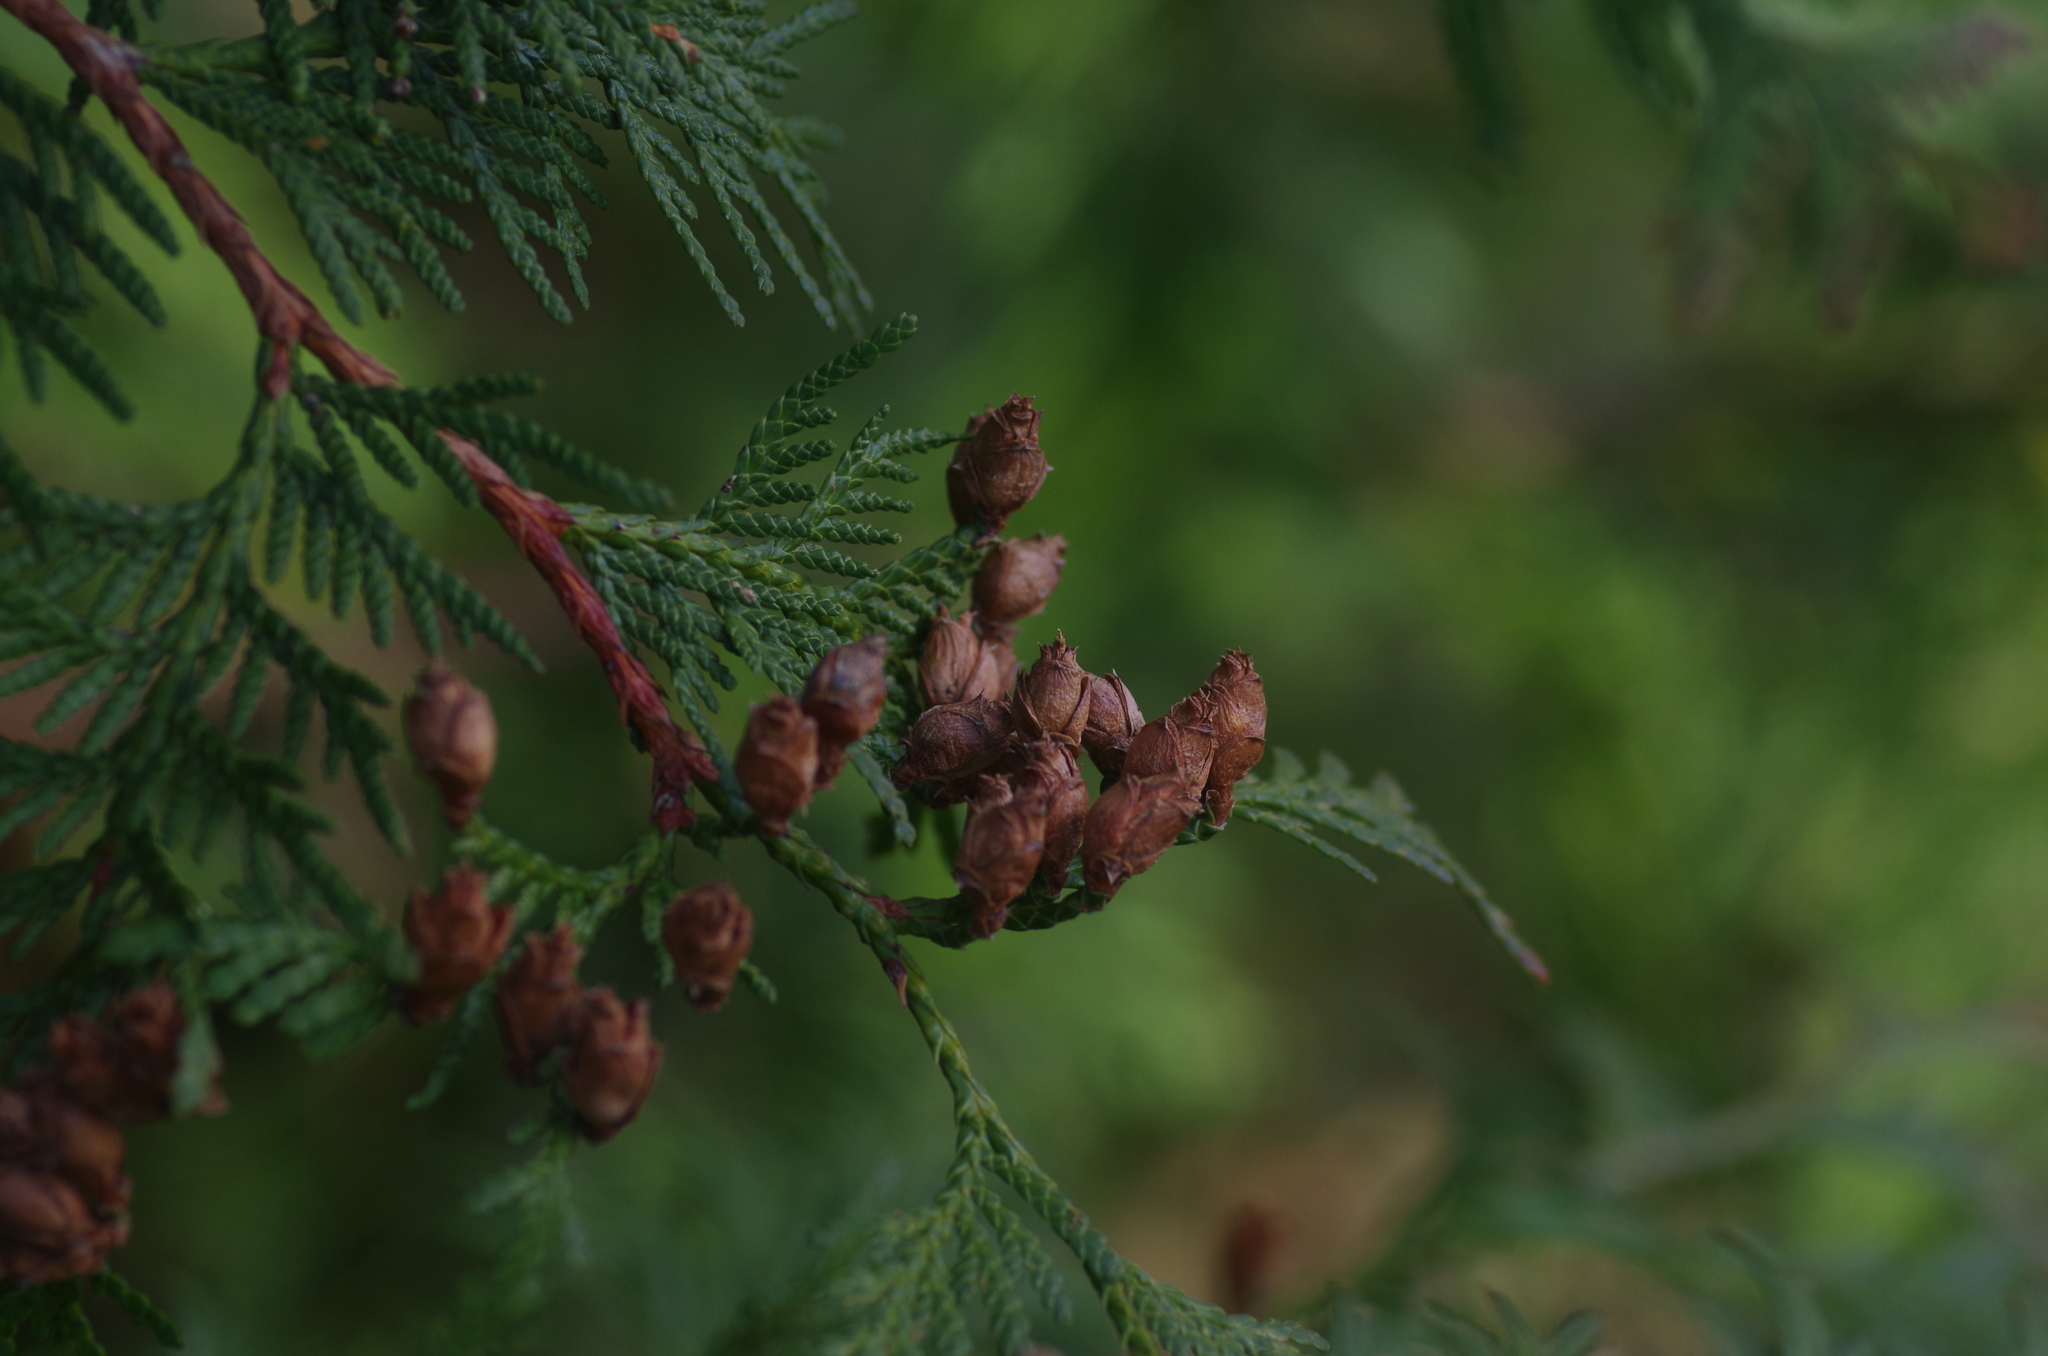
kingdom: Plantae
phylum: Tracheophyta
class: Pinopsida
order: Pinales
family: Cupressaceae
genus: Thuja
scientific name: Thuja plicata
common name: Western red-cedar
